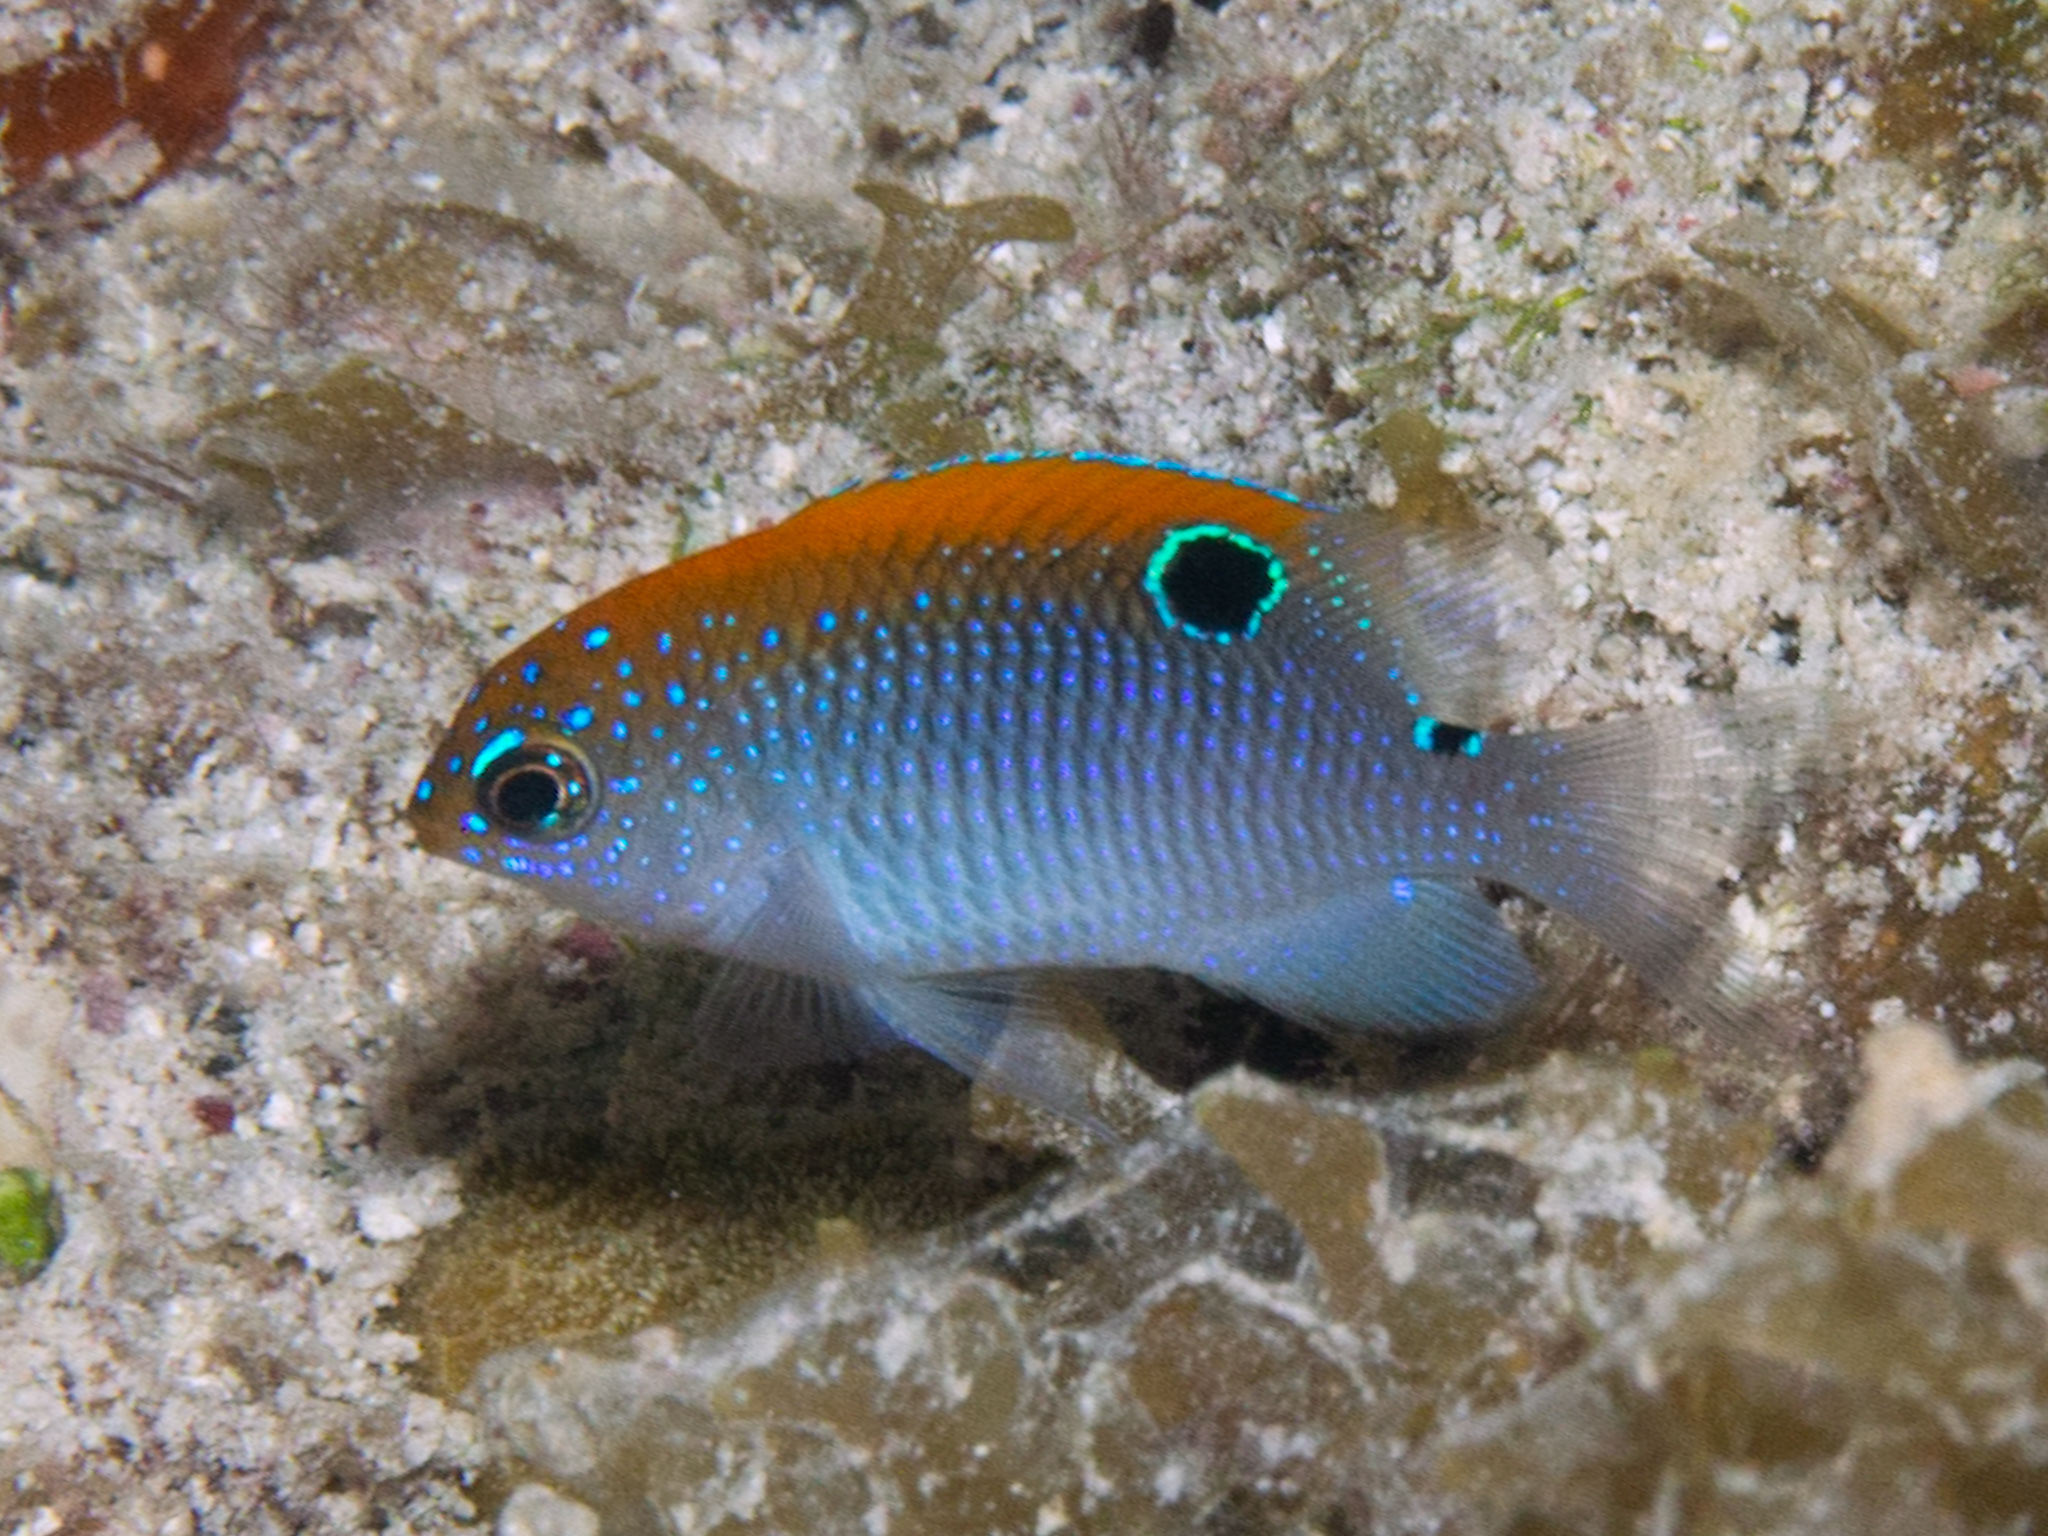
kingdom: Animalia
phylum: Chordata
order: Perciformes
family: Pomacentridae
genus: Stegastes
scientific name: Stegastes adustus
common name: Dusky damselfish
